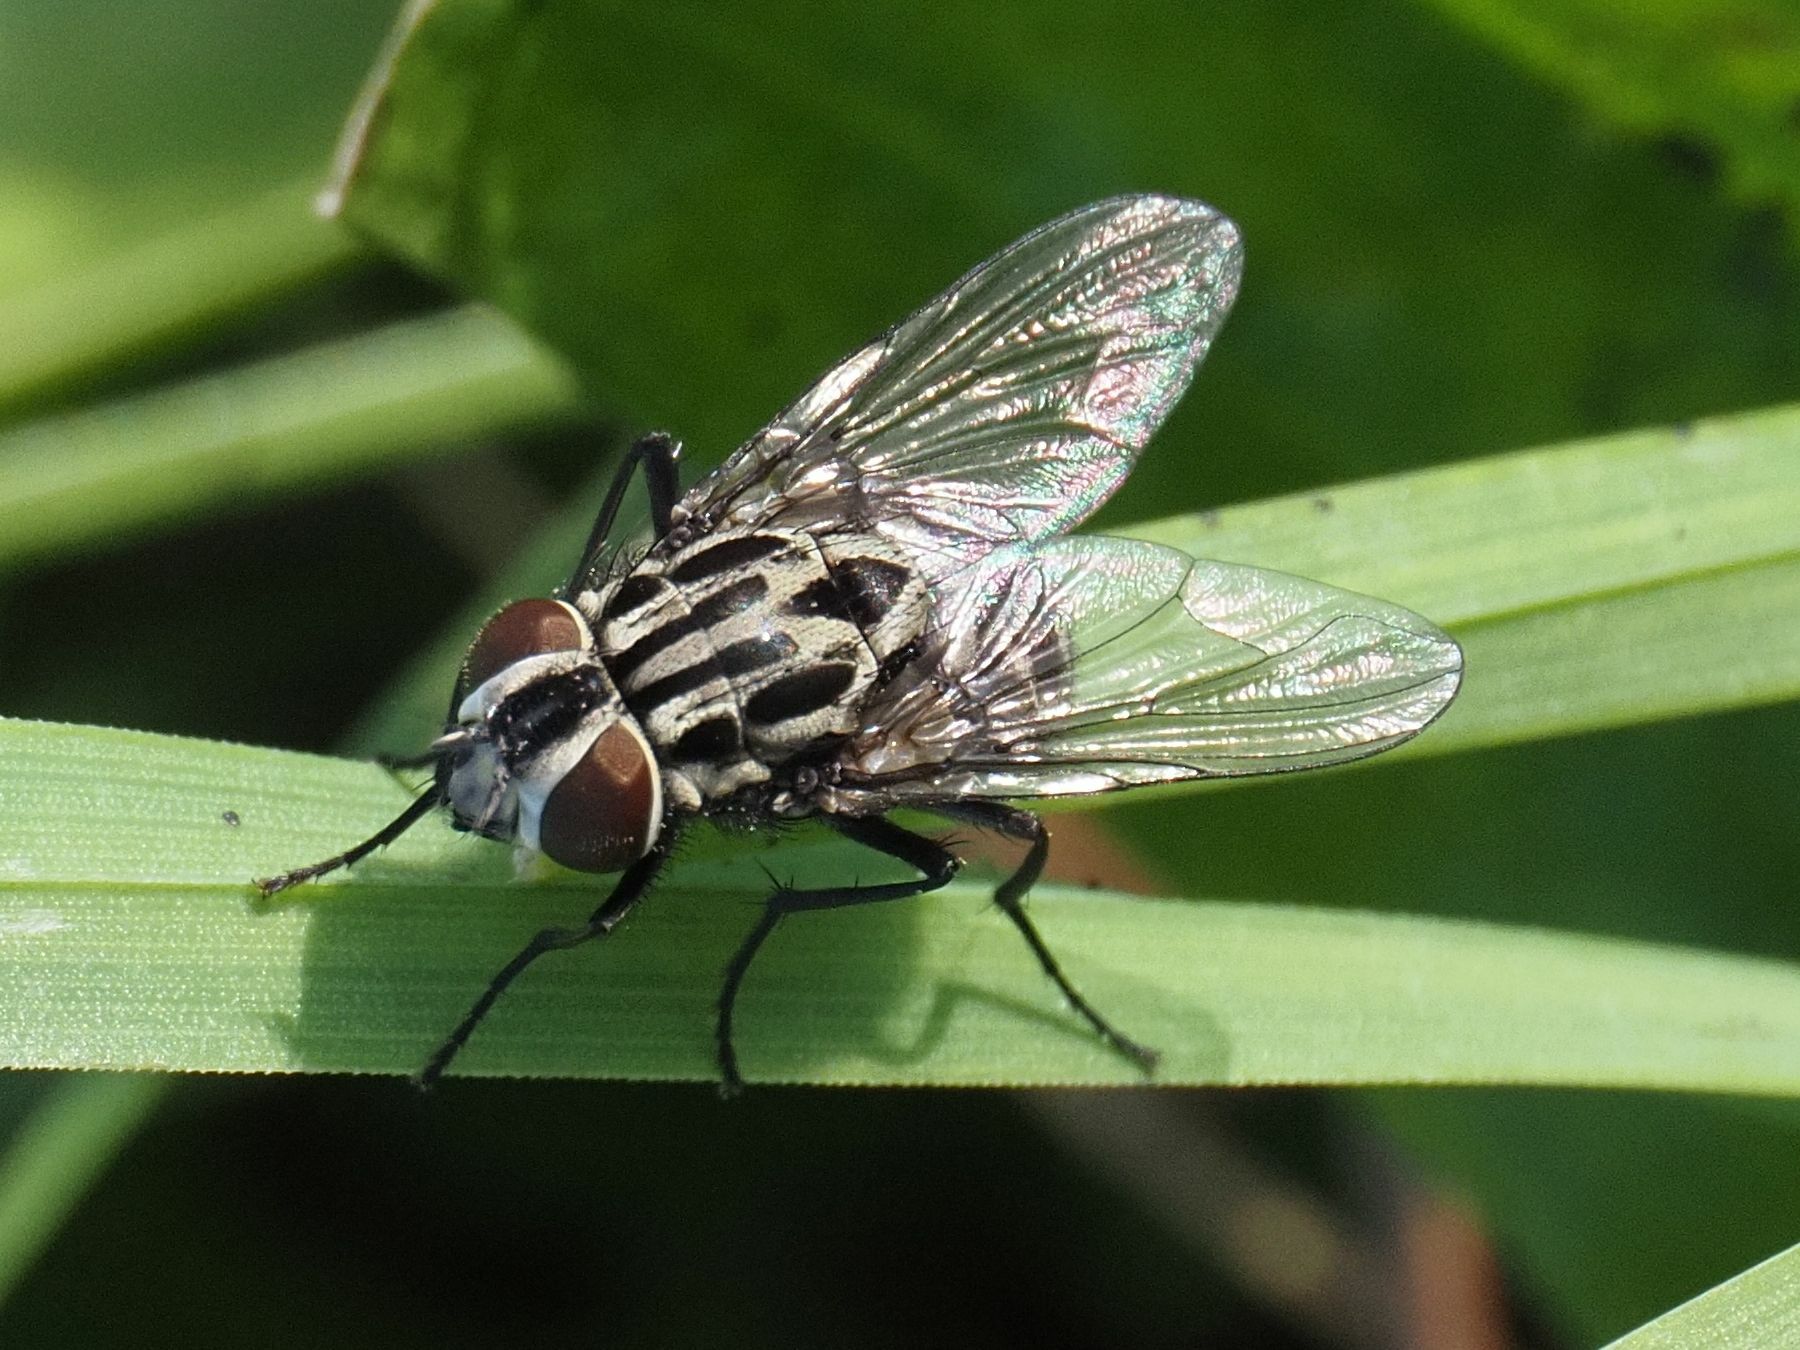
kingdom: Animalia
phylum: Arthropoda
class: Insecta
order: Diptera
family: Muscidae
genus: Graphomya
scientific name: Graphomya maculata
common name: Muscid fly
